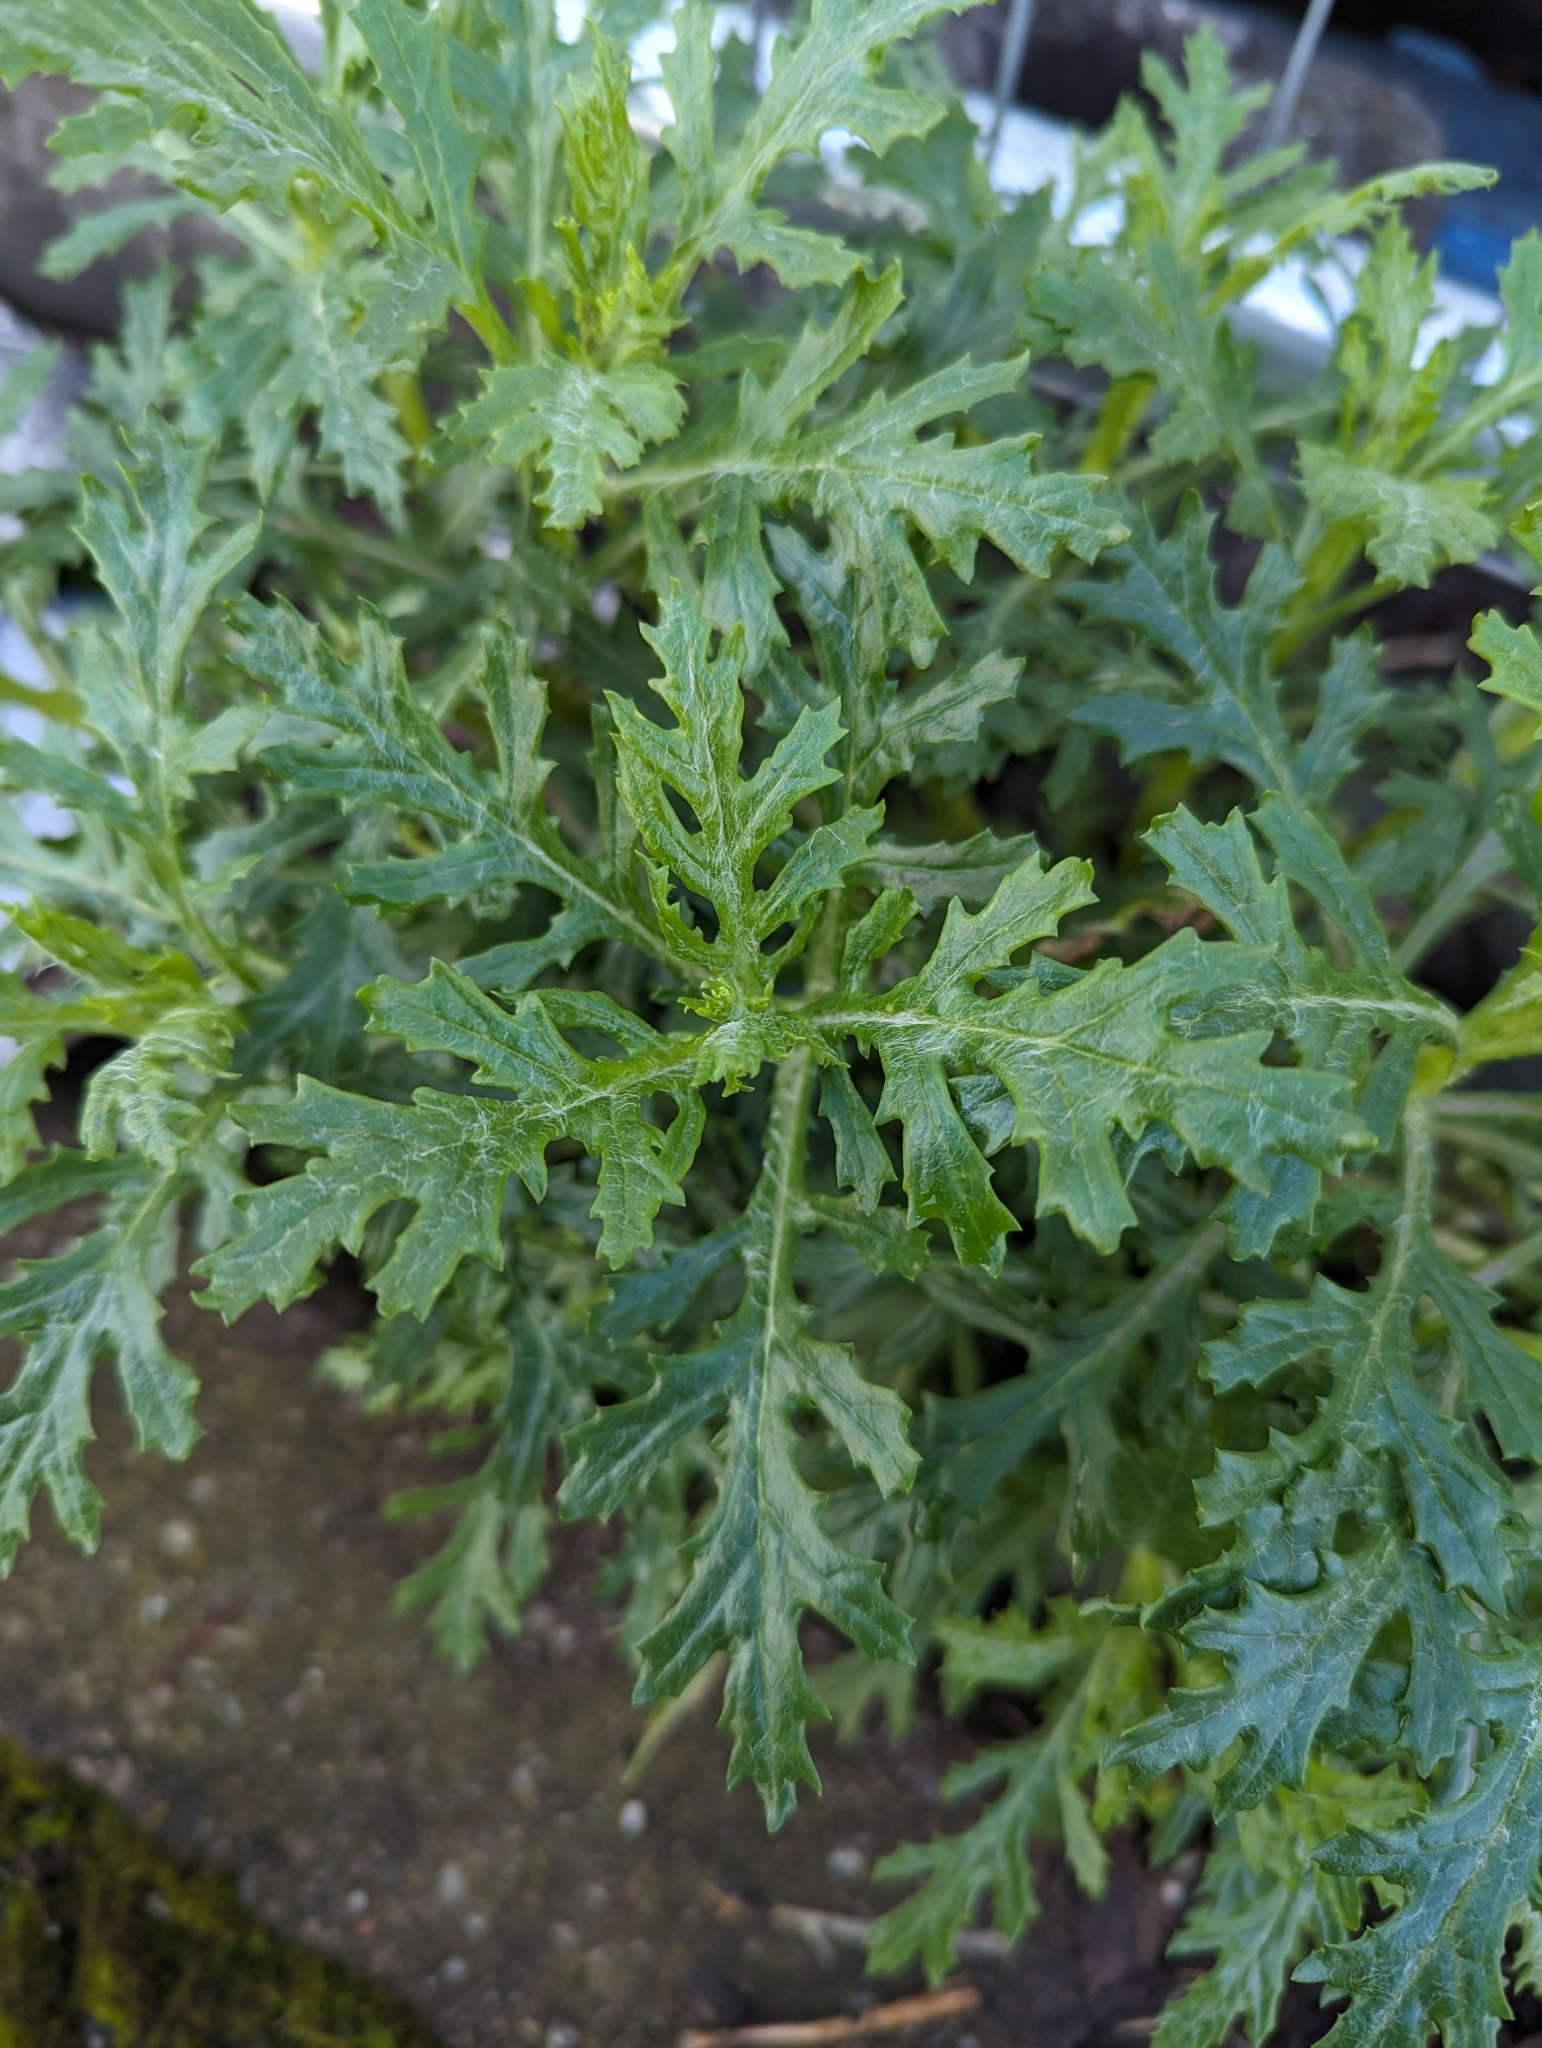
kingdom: Plantae
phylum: Tracheophyta
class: Magnoliopsida
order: Asterales
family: Asteraceae
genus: Senecio
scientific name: Senecio squalidus
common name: Oxford ragwort
